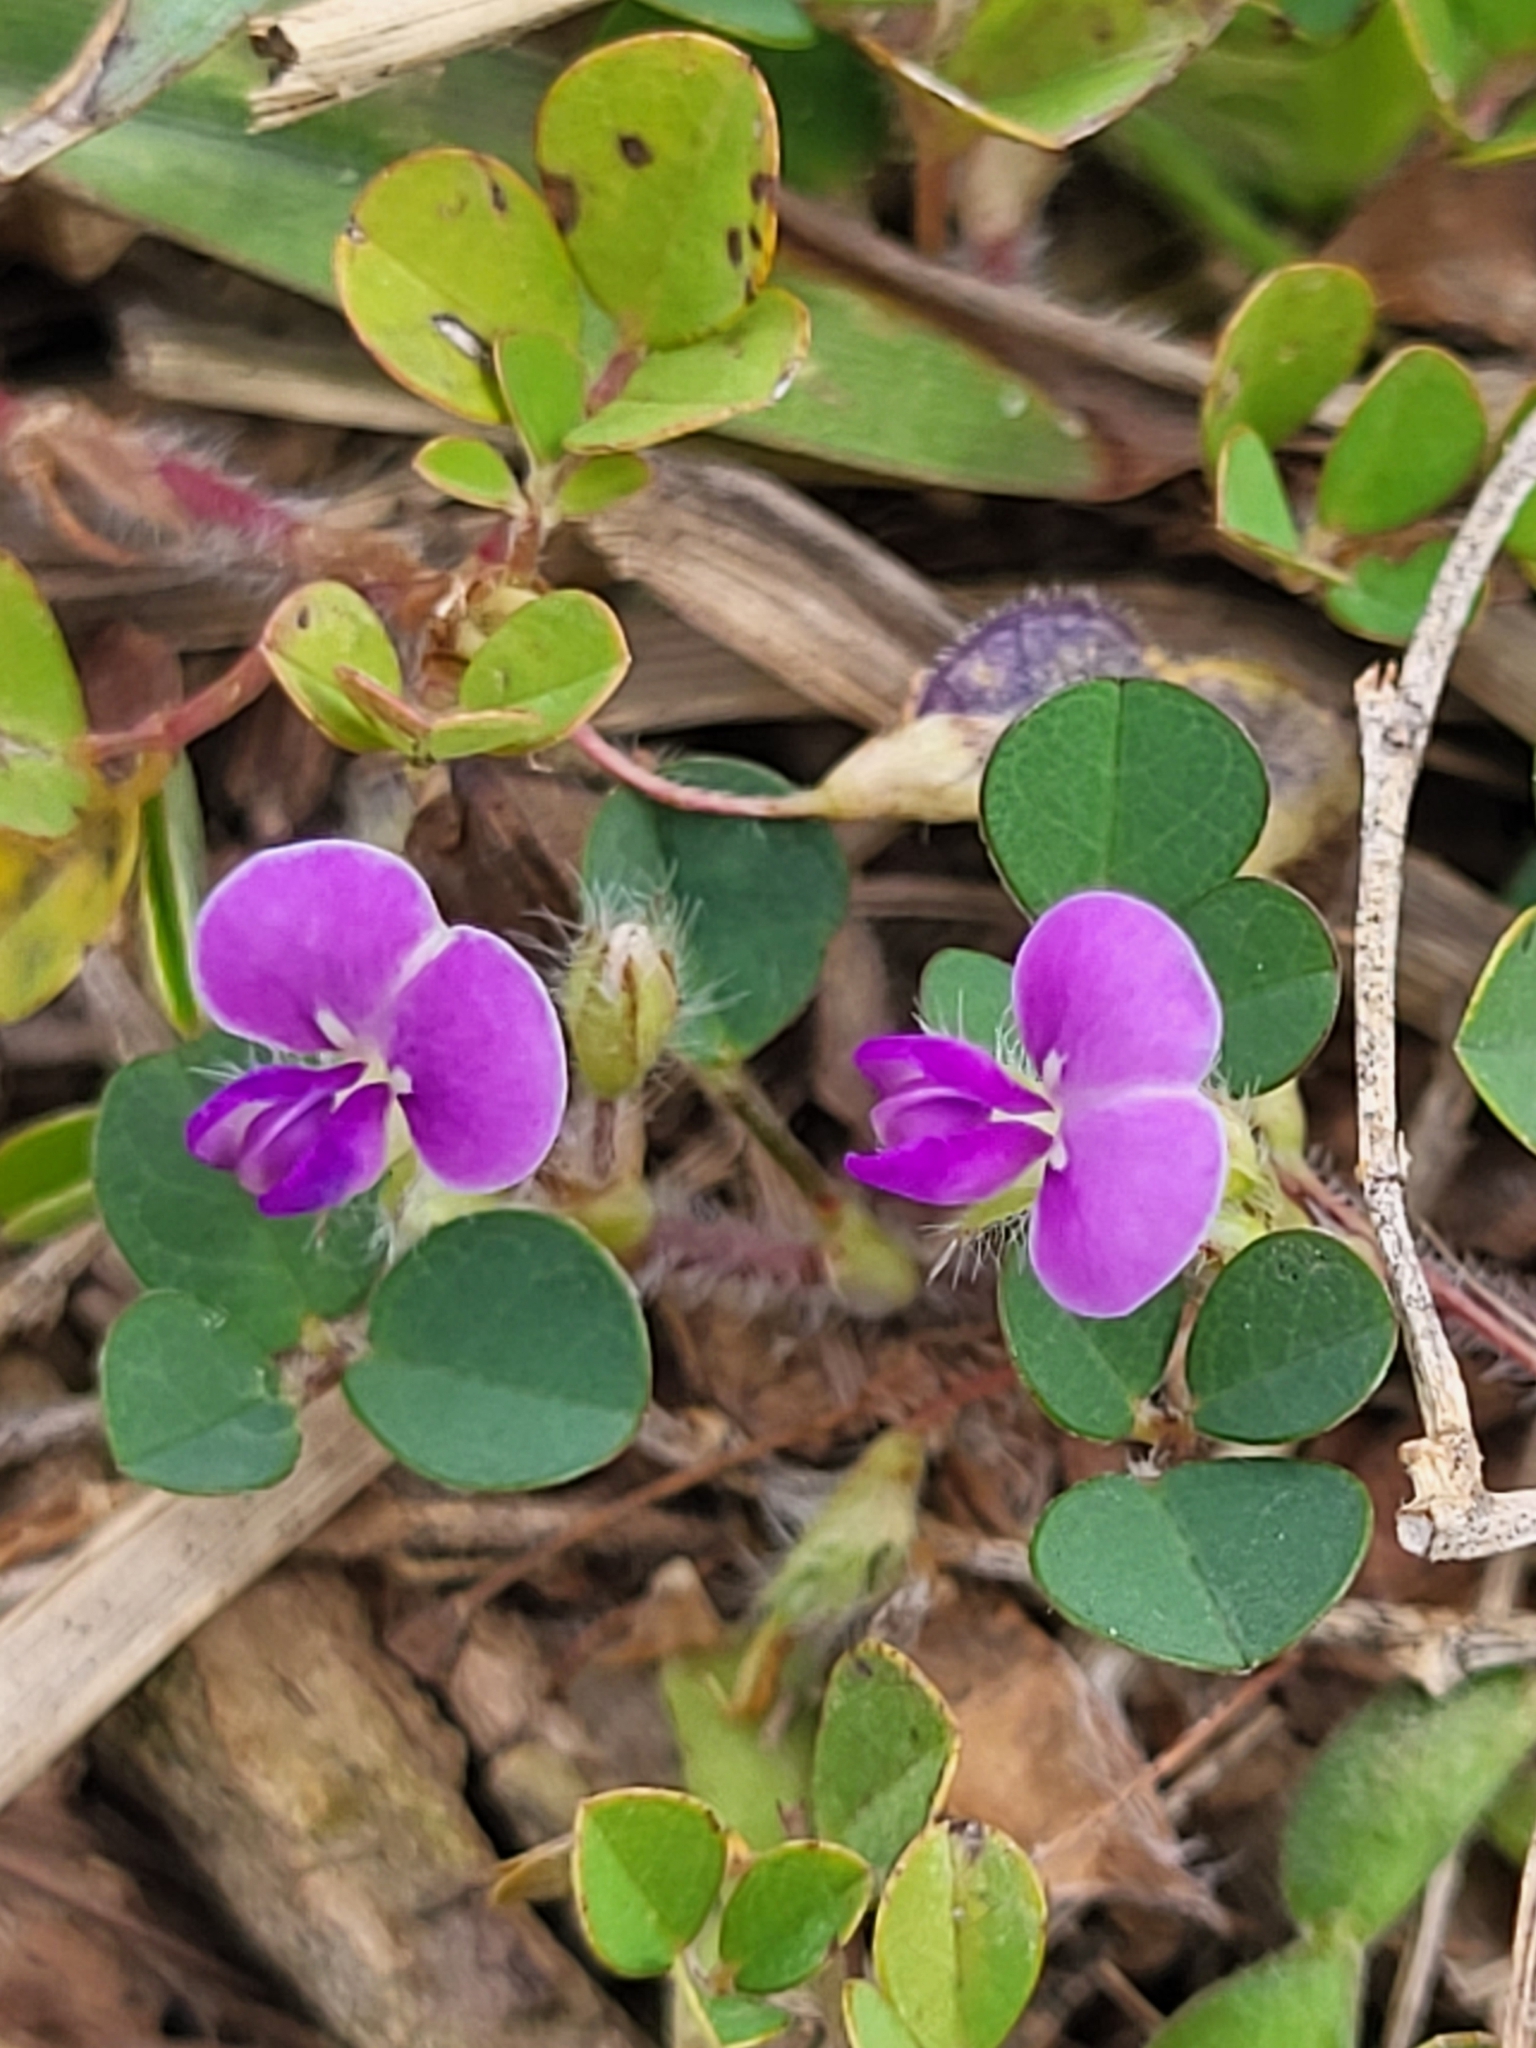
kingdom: Plantae
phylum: Tracheophyta
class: Magnoliopsida
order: Fabales
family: Fabaceae
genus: Grona
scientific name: Grona triflora
